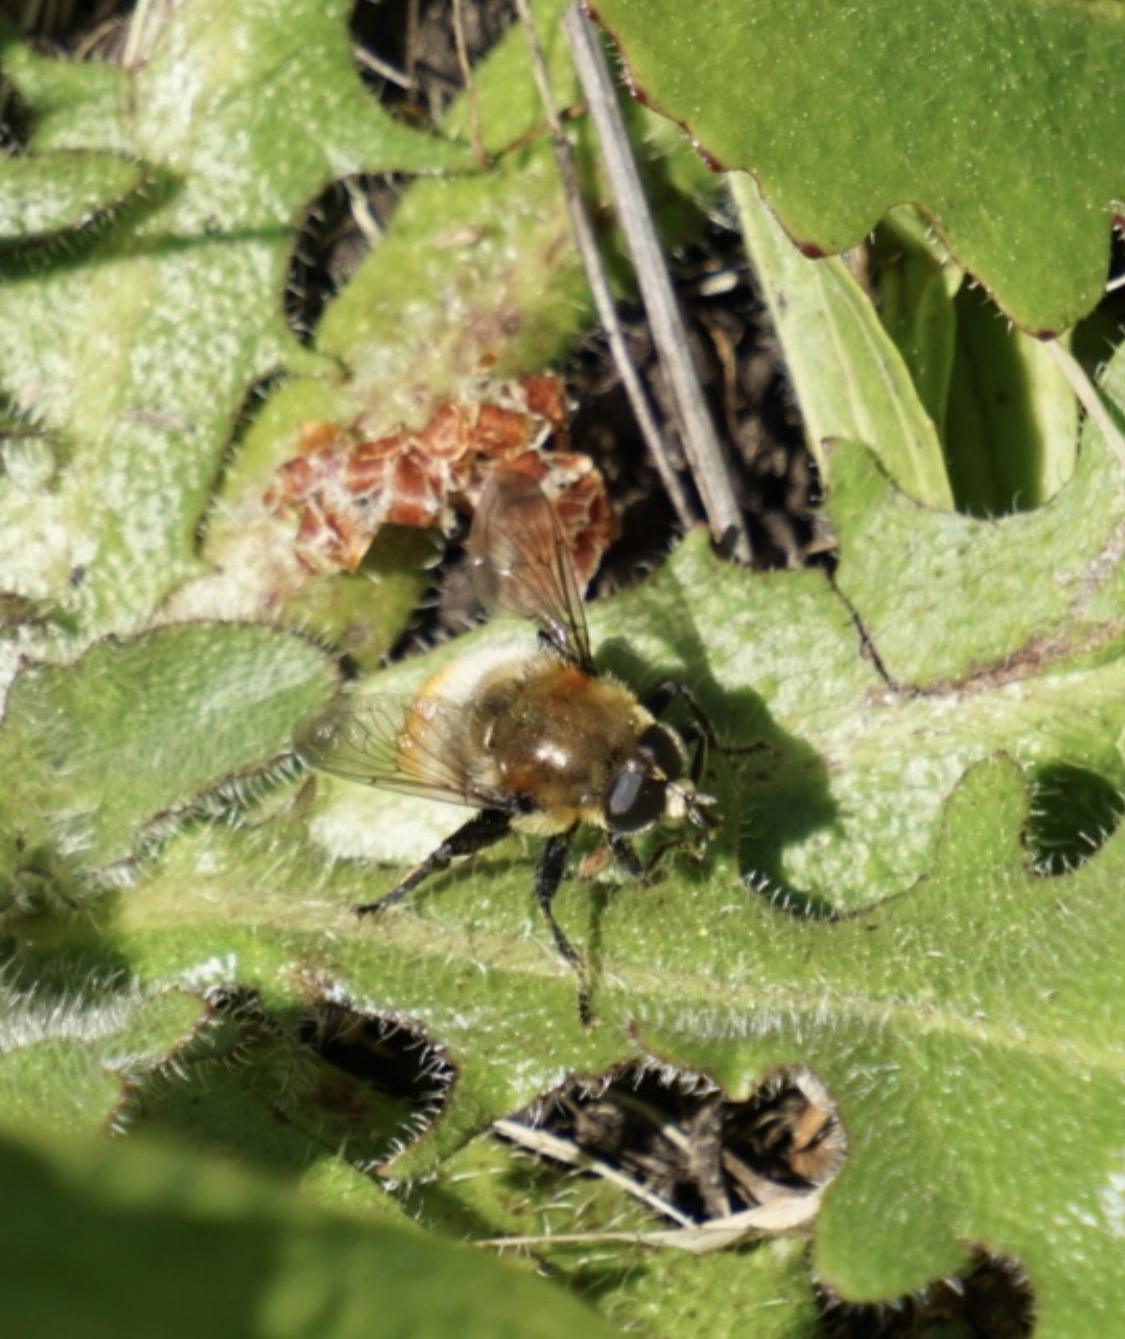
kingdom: Animalia
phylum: Arthropoda
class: Insecta
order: Diptera
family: Syrphidae
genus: Merodon
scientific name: Merodon equestris
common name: Greater bulb-fly
